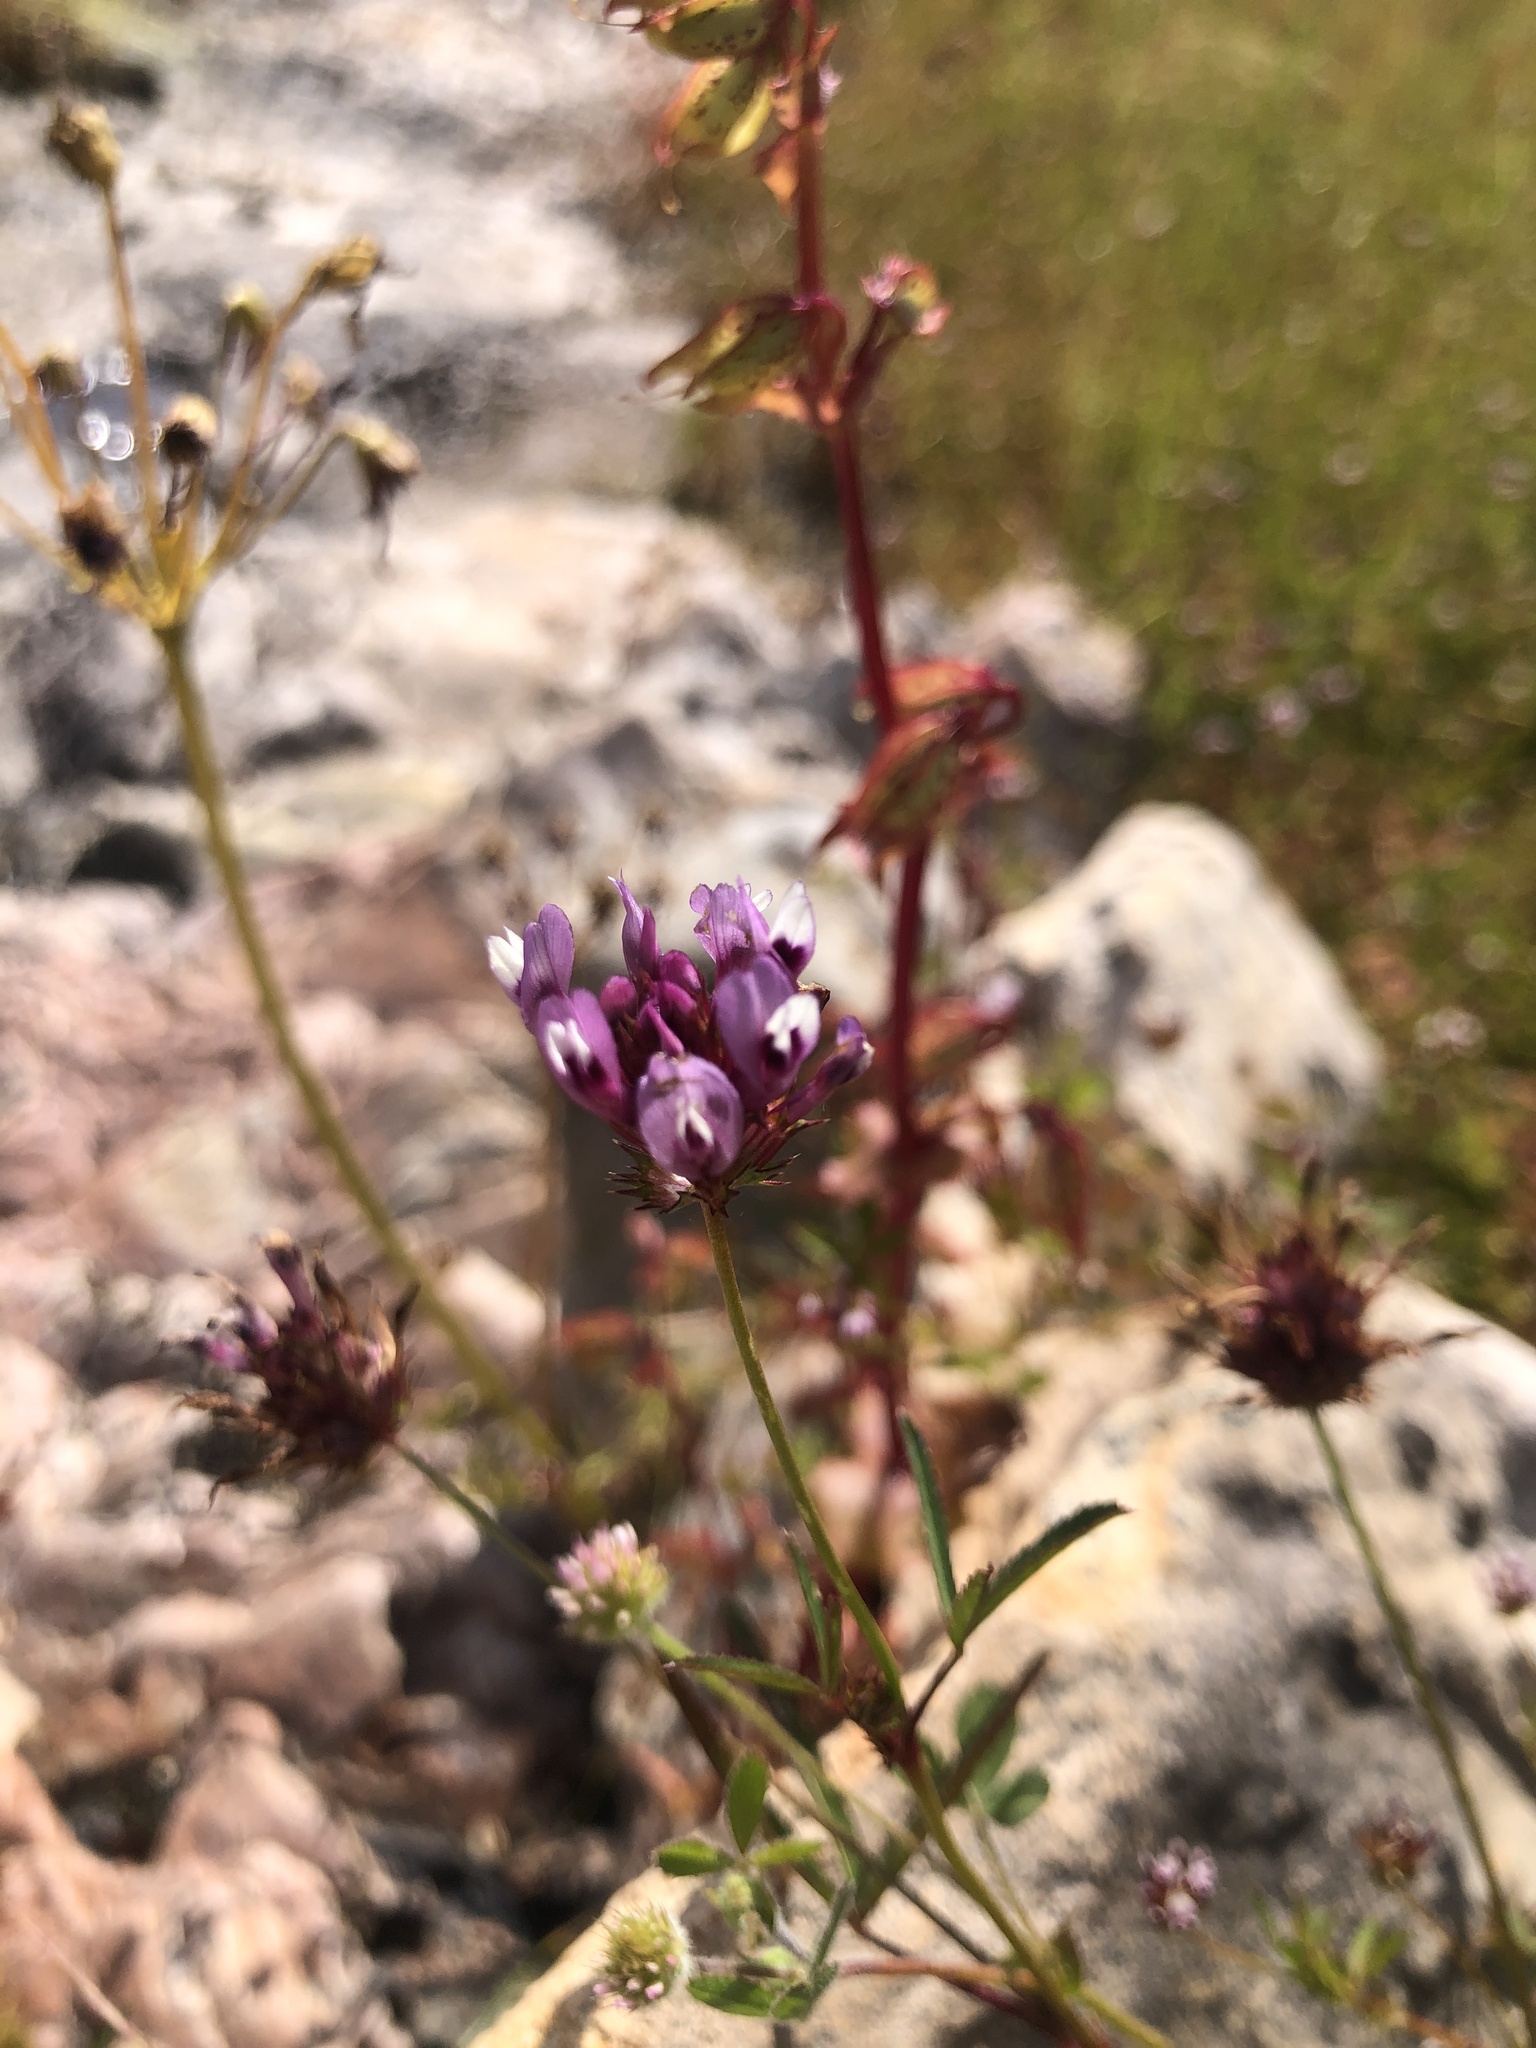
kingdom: Plantae
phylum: Tracheophyta
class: Magnoliopsida
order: Fabales
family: Fabaceae
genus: Trifolium
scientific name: Trifolium willdenovii
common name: Tomcat clover
